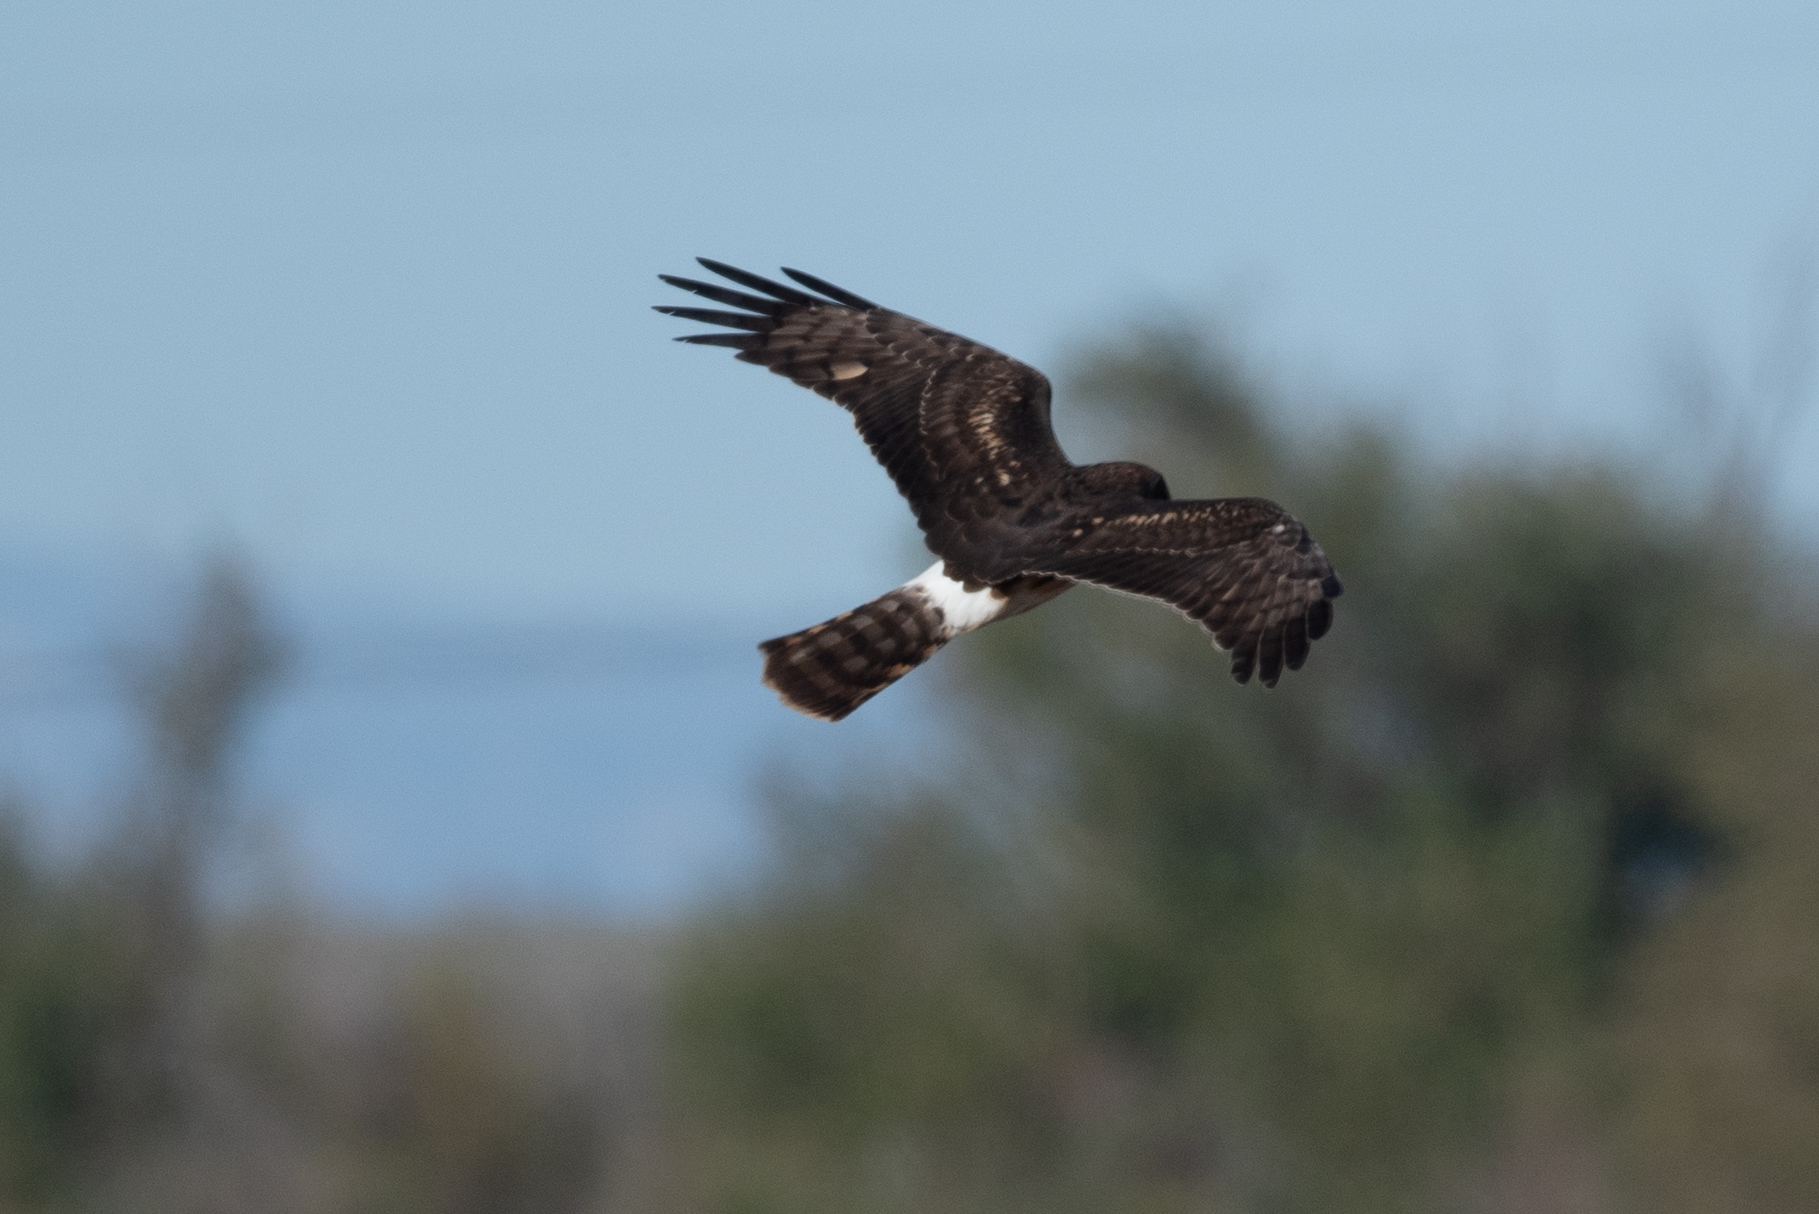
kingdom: Animalia
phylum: Chordata
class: Aves
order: Accipitriformes
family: Accipitridae
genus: Circus
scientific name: Circus cyaneus
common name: Hen harrier
